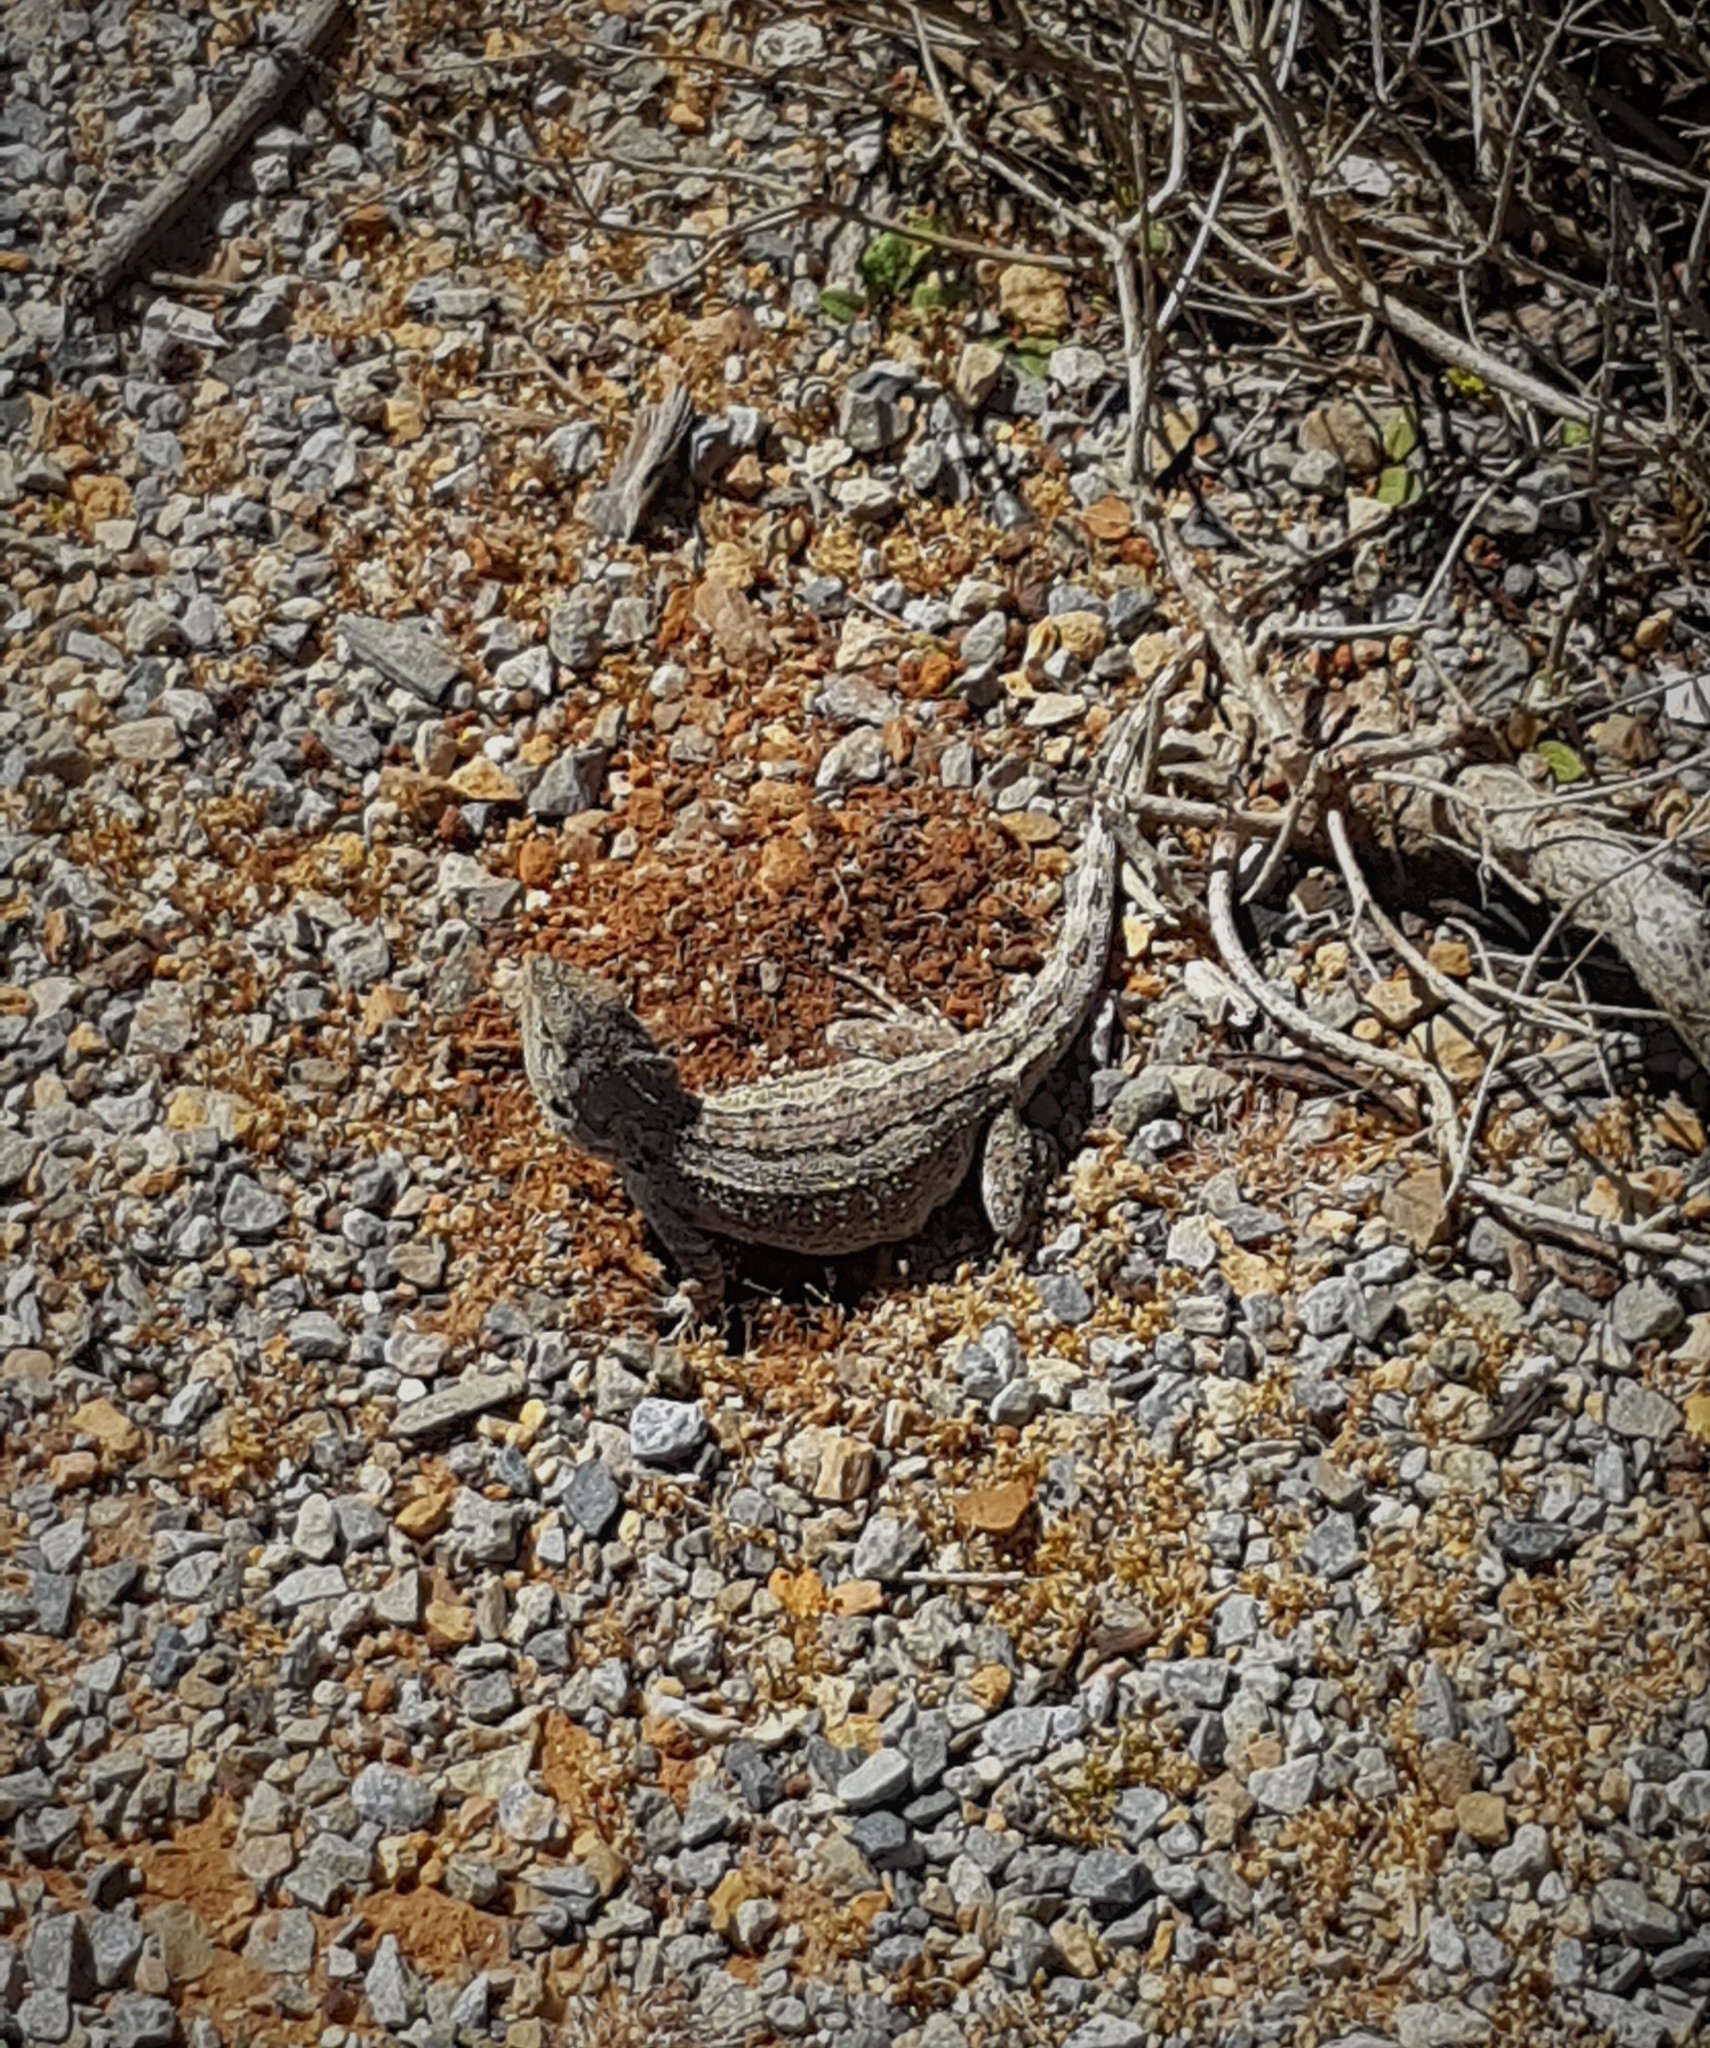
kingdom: Animalia
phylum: Chordata
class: Squamata
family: Agamidae
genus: Amphibolurus
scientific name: Amphibolurus muricatus
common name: Jacky lizard
